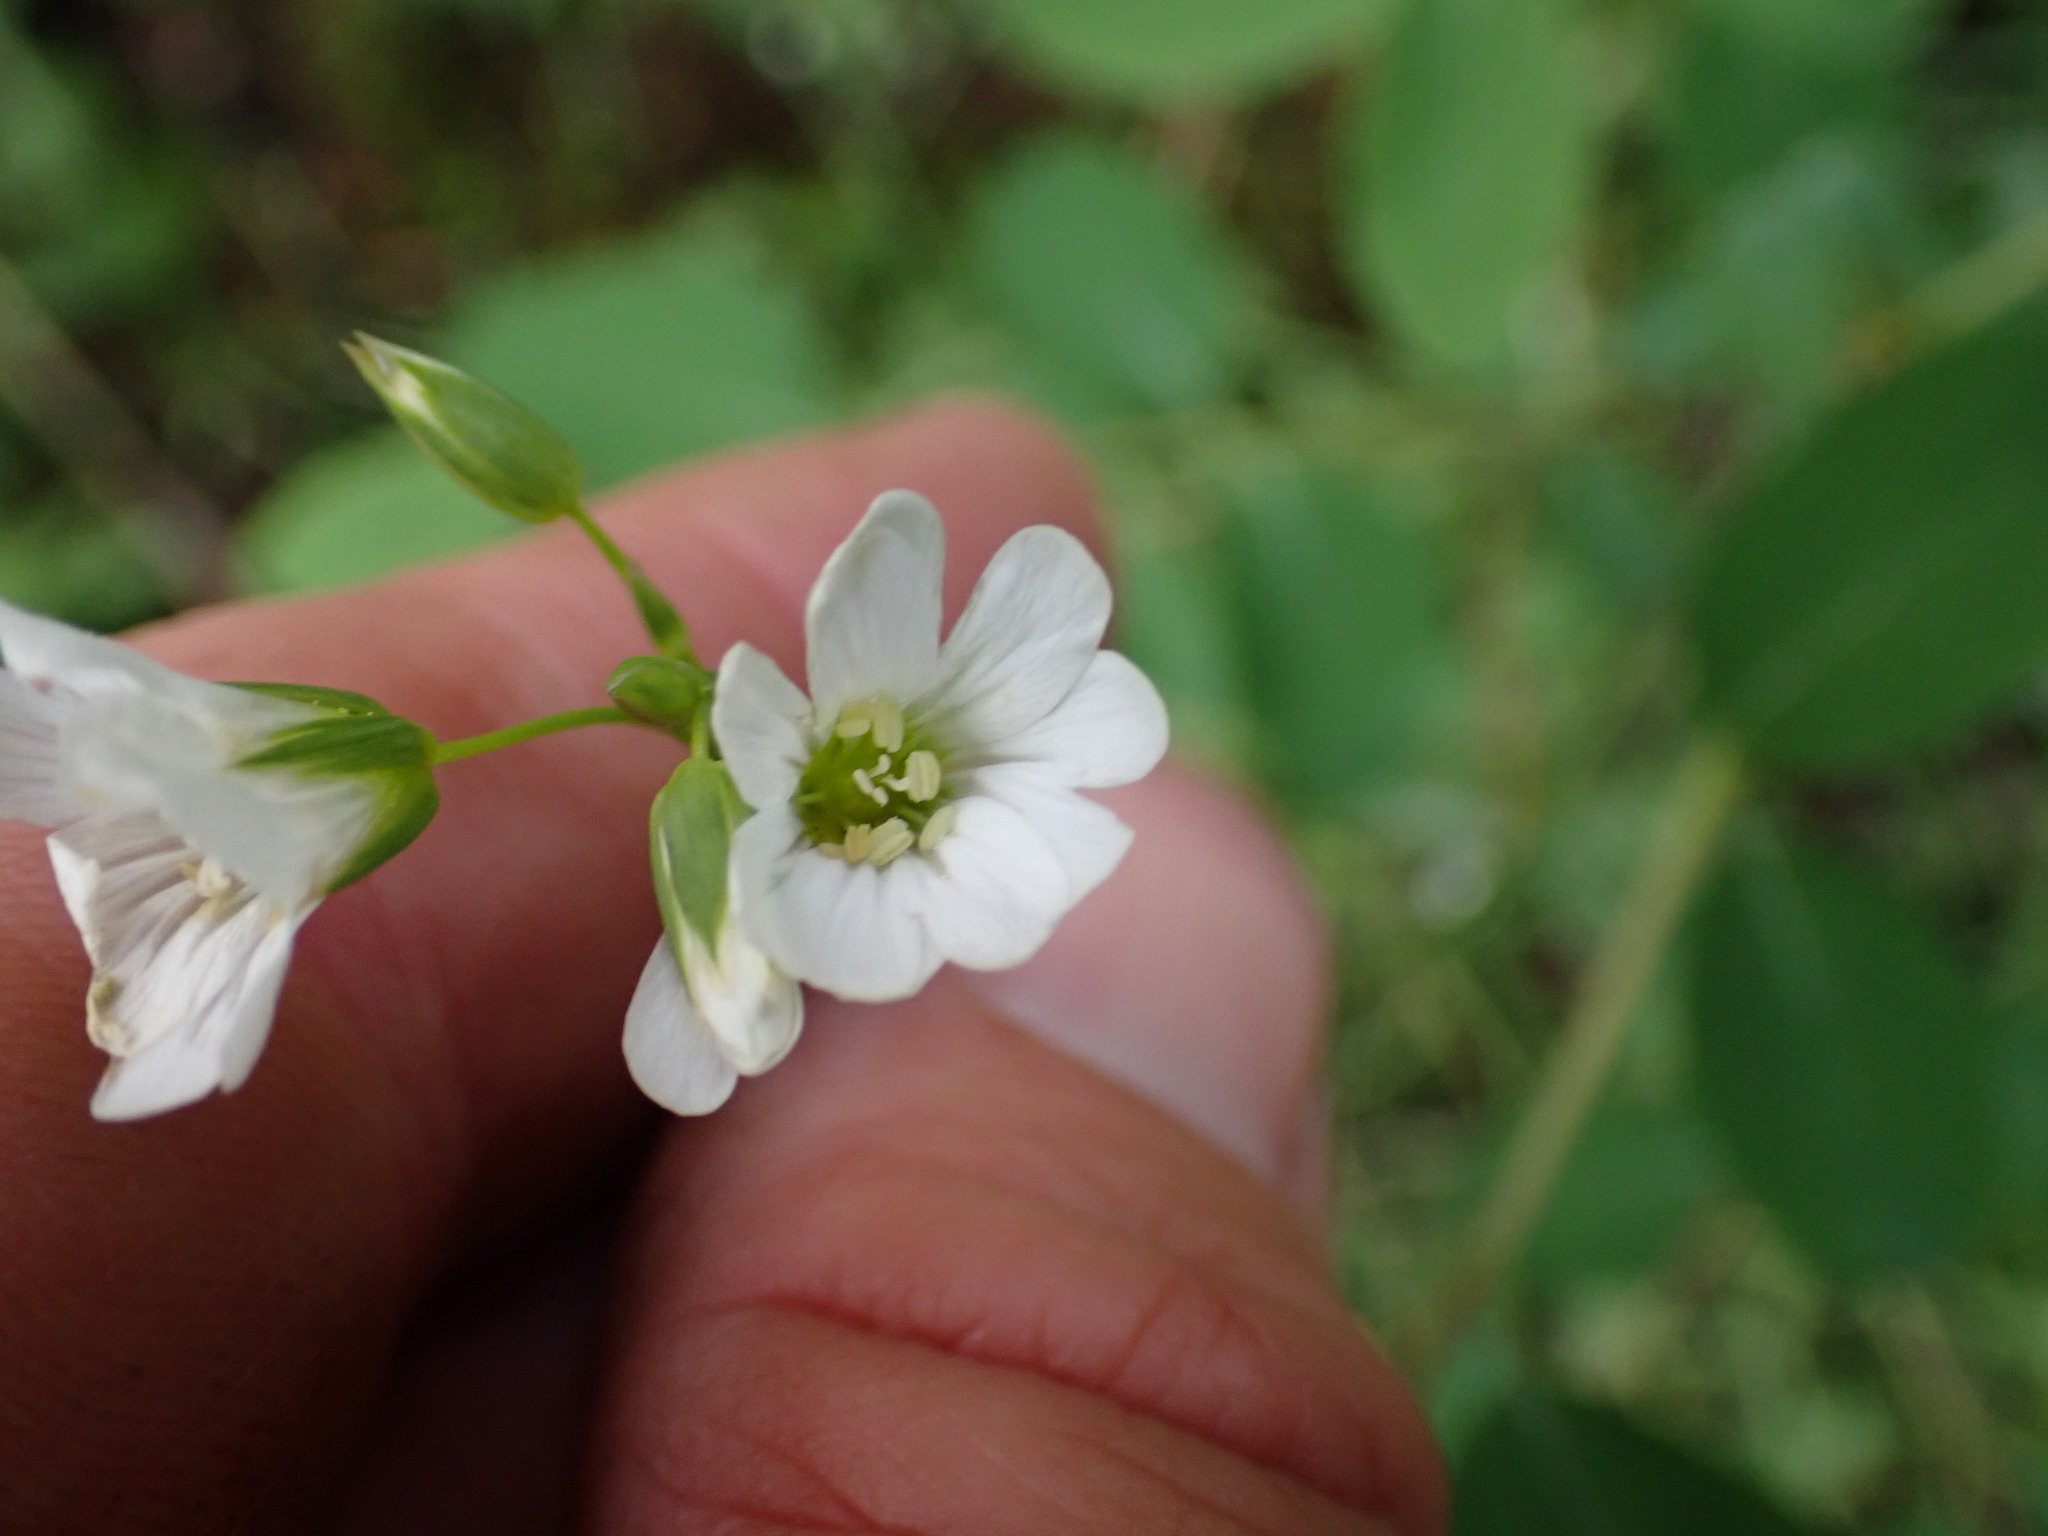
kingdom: Plantae
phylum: Tracheophyta
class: Magnoliopsida
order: Caryophyllales
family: Caryophyllaceae
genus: Cerastium
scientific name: Cerastium arvense
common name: Field mouse-ear
